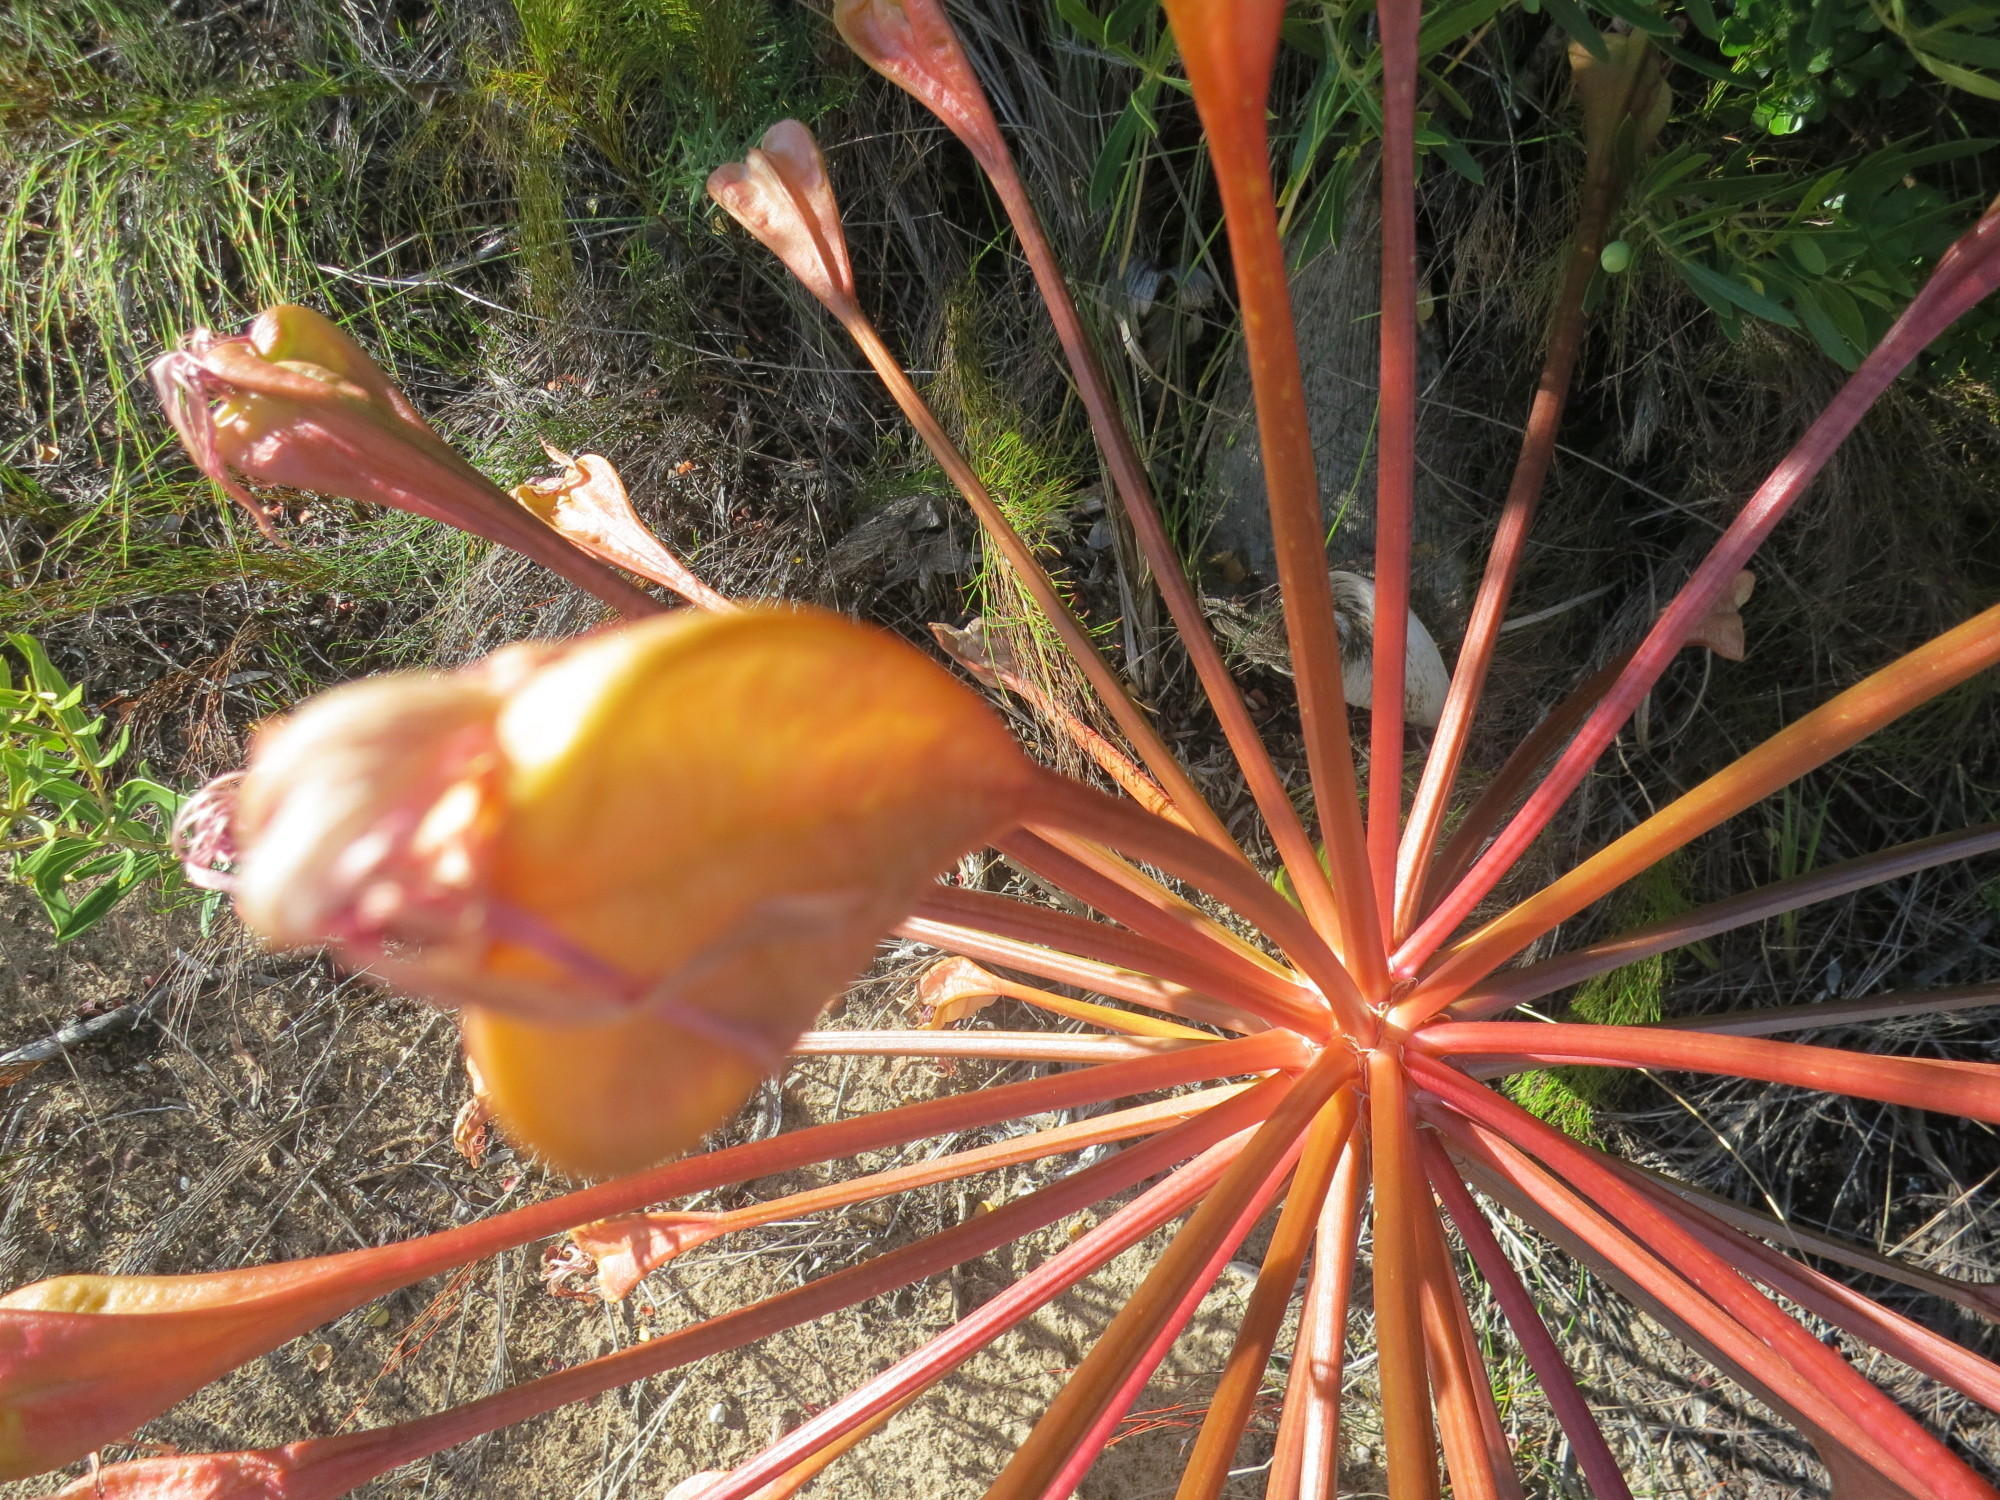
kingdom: Plantae
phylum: Tracheophyta
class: Liliopsida
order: Asparagales
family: Amaryllidaceae
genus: Brunsvigia
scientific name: Brunsvigia orientalis
